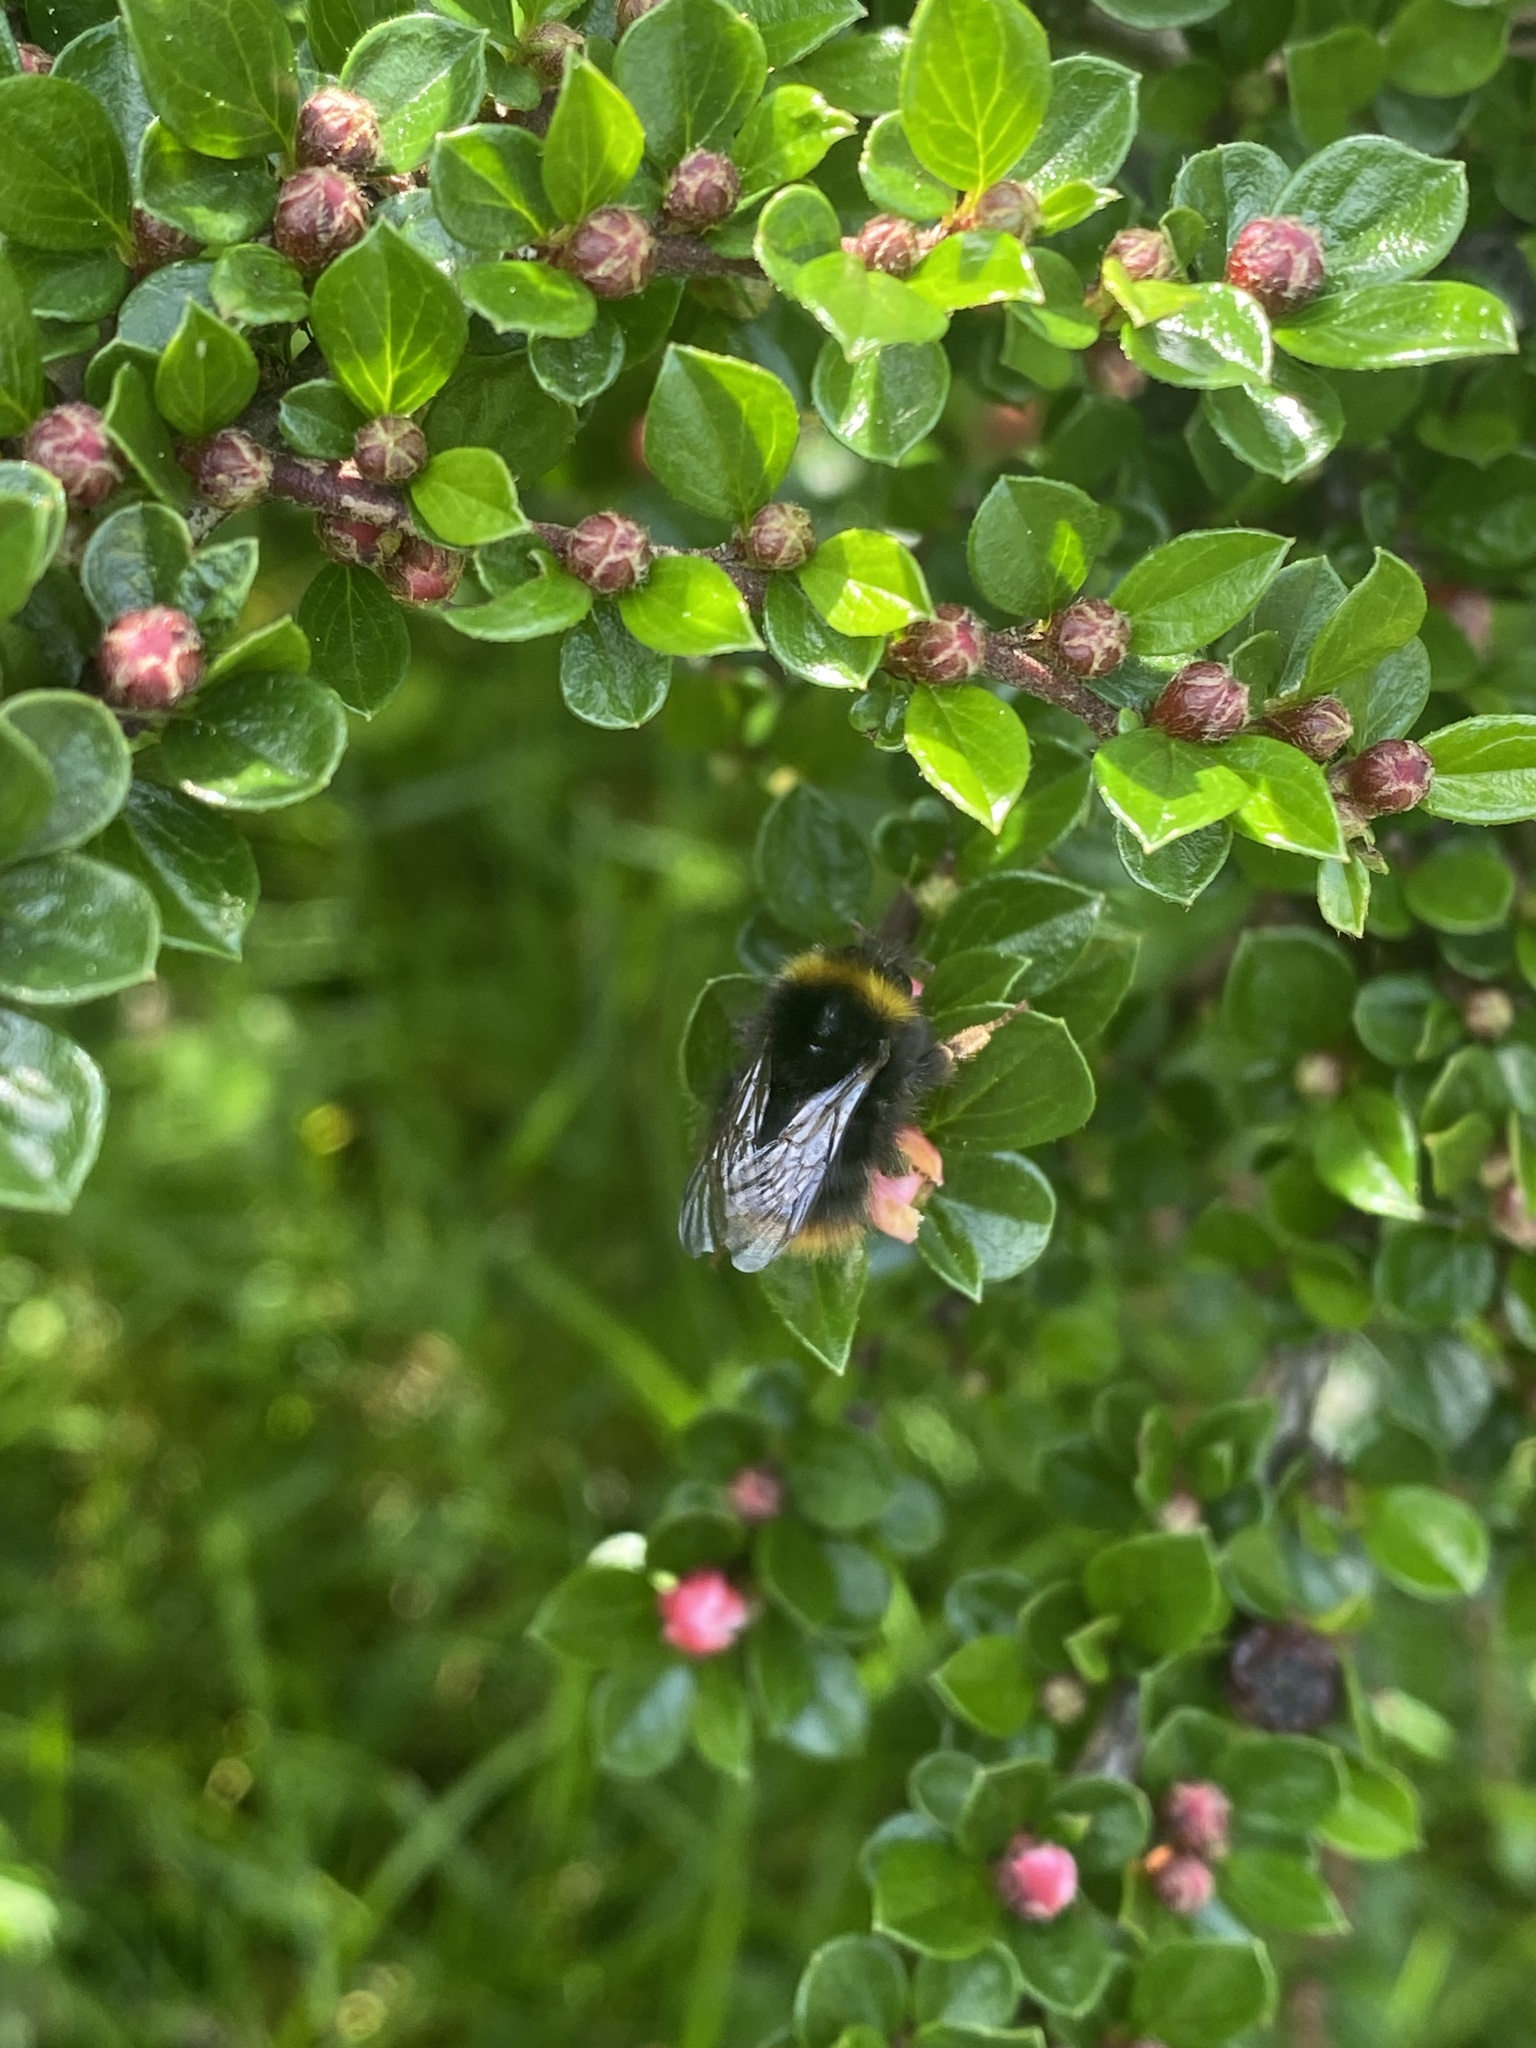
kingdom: Animalia
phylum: Arthropoda
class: Insecta
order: Hymenoptera
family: Apidae
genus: Bombus
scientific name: Bombus pratorum
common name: Early humble-bee
